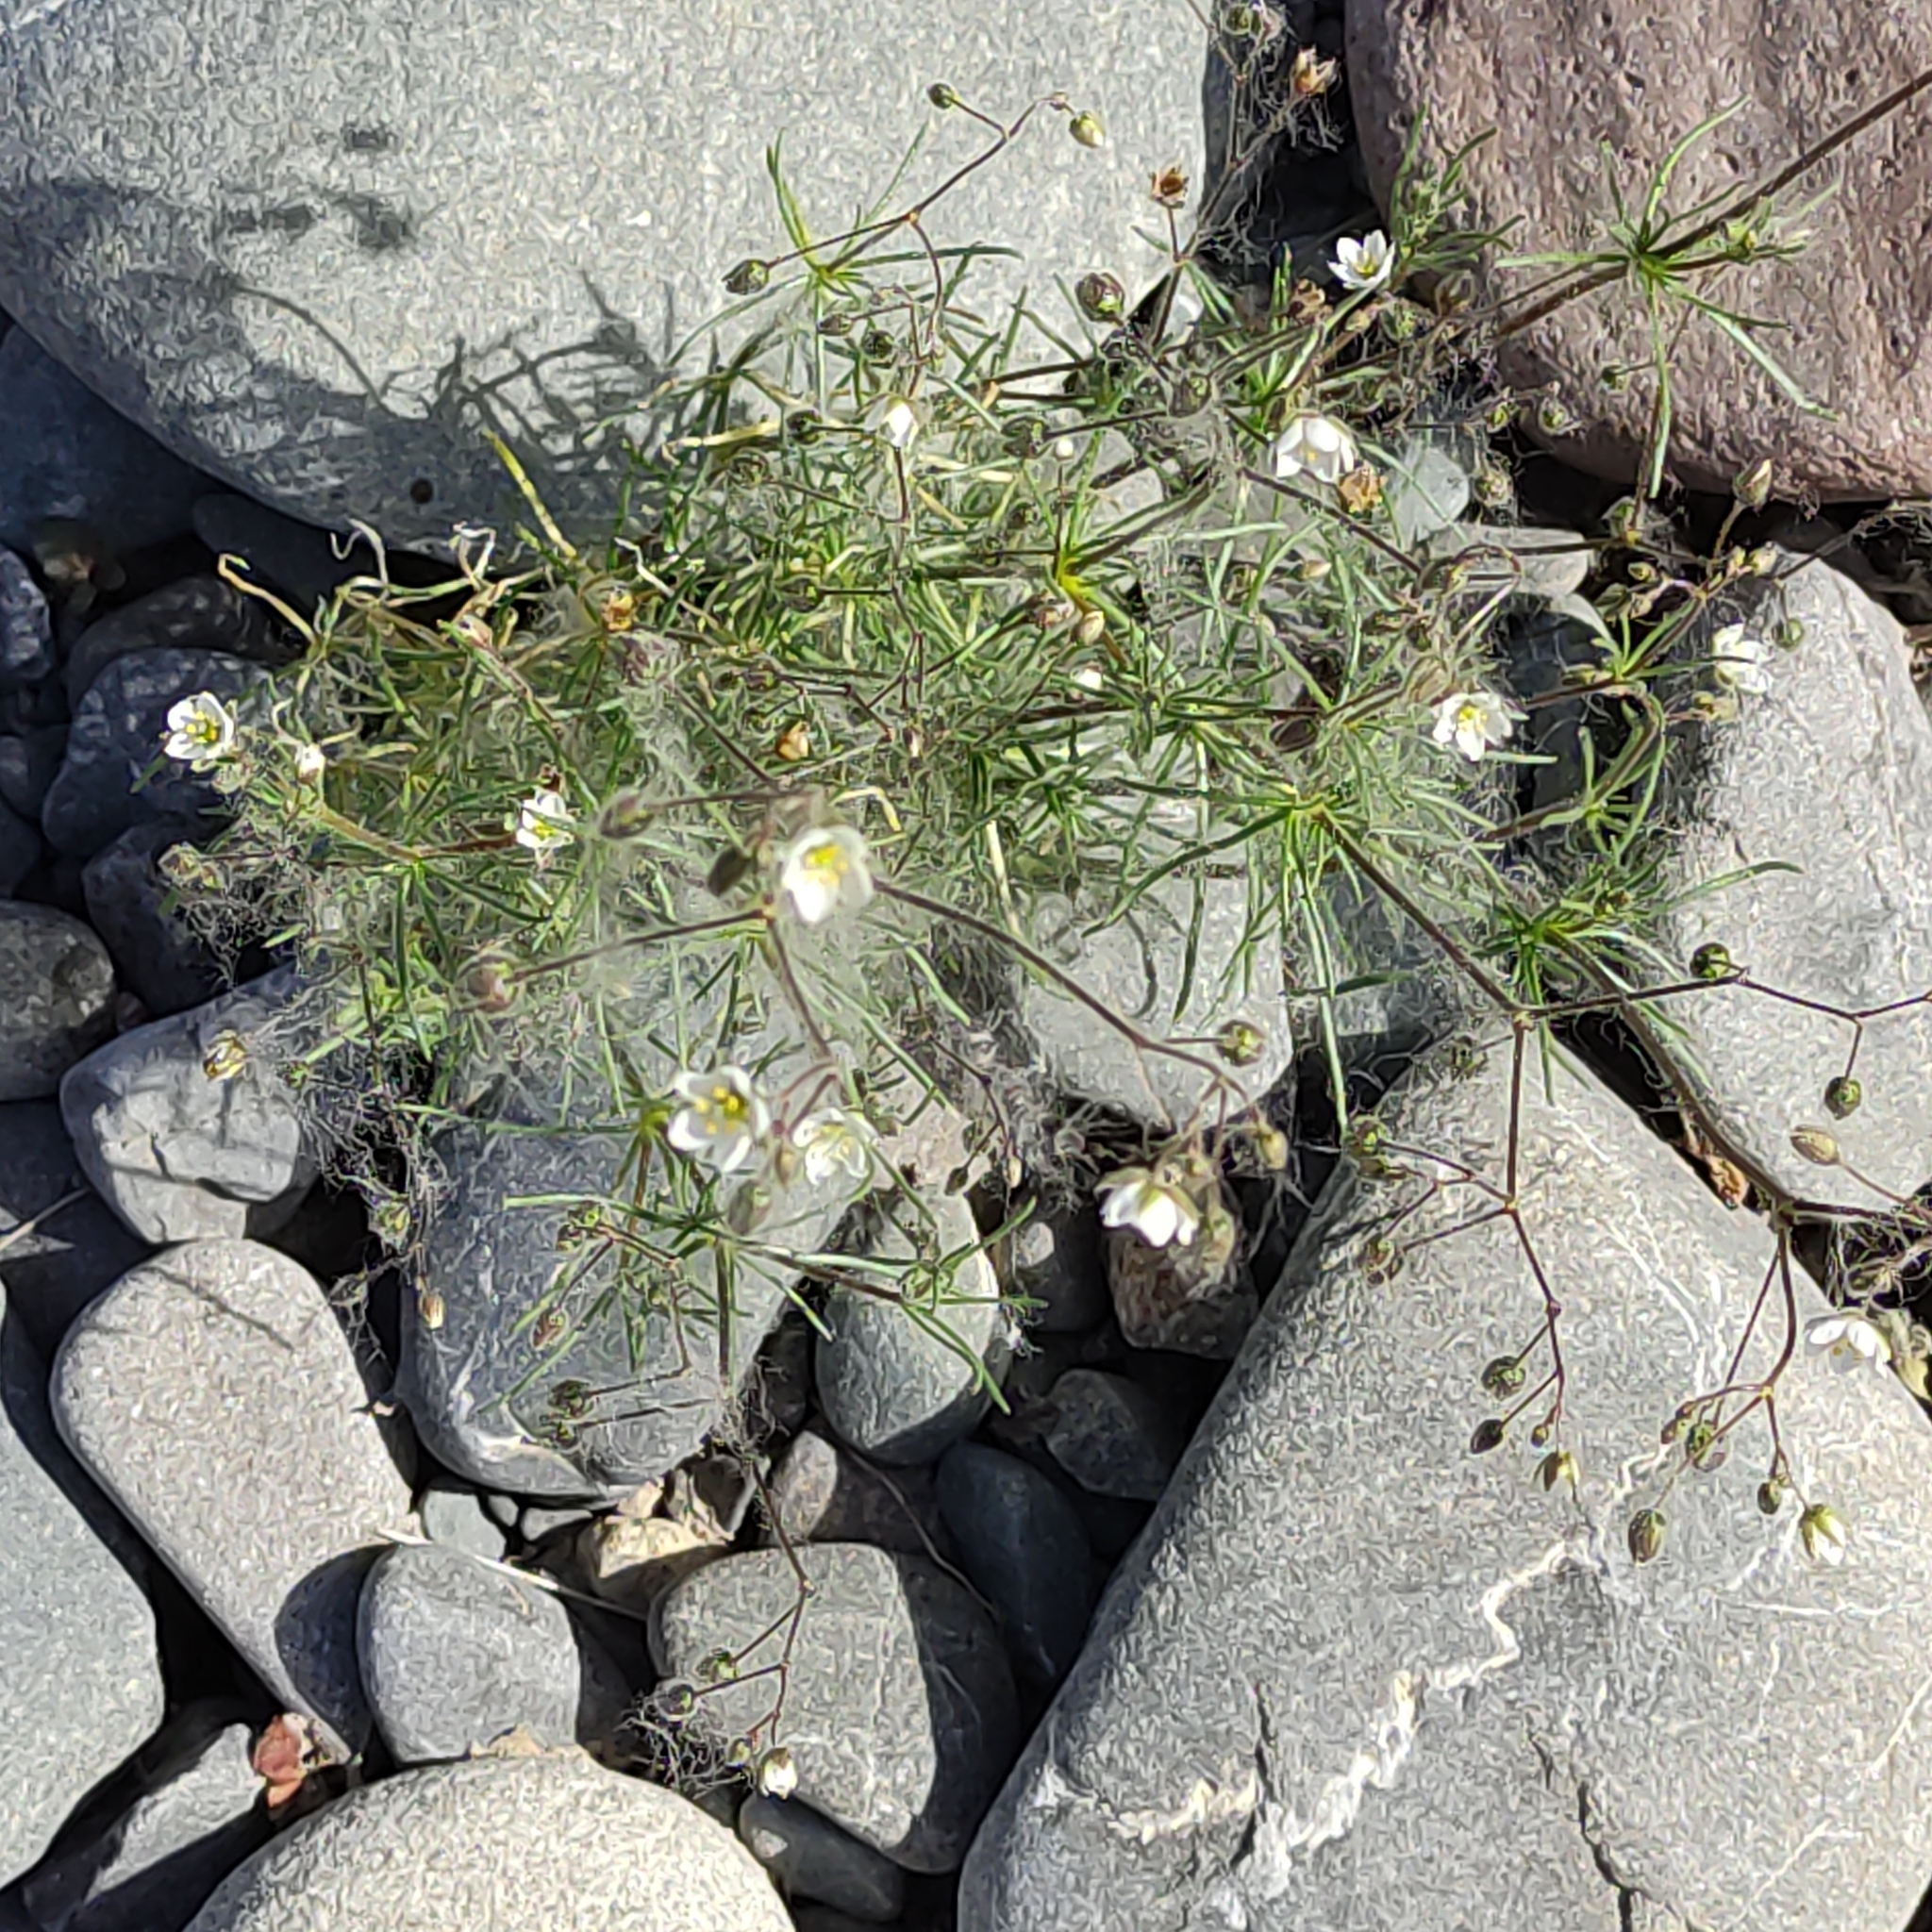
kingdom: Plantae
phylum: Tracheophyta
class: Magnoliopsida
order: Caryophyllales
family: Caryophyllaceae
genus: Spergula
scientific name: Spergula arvensis
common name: Corn spurrey
